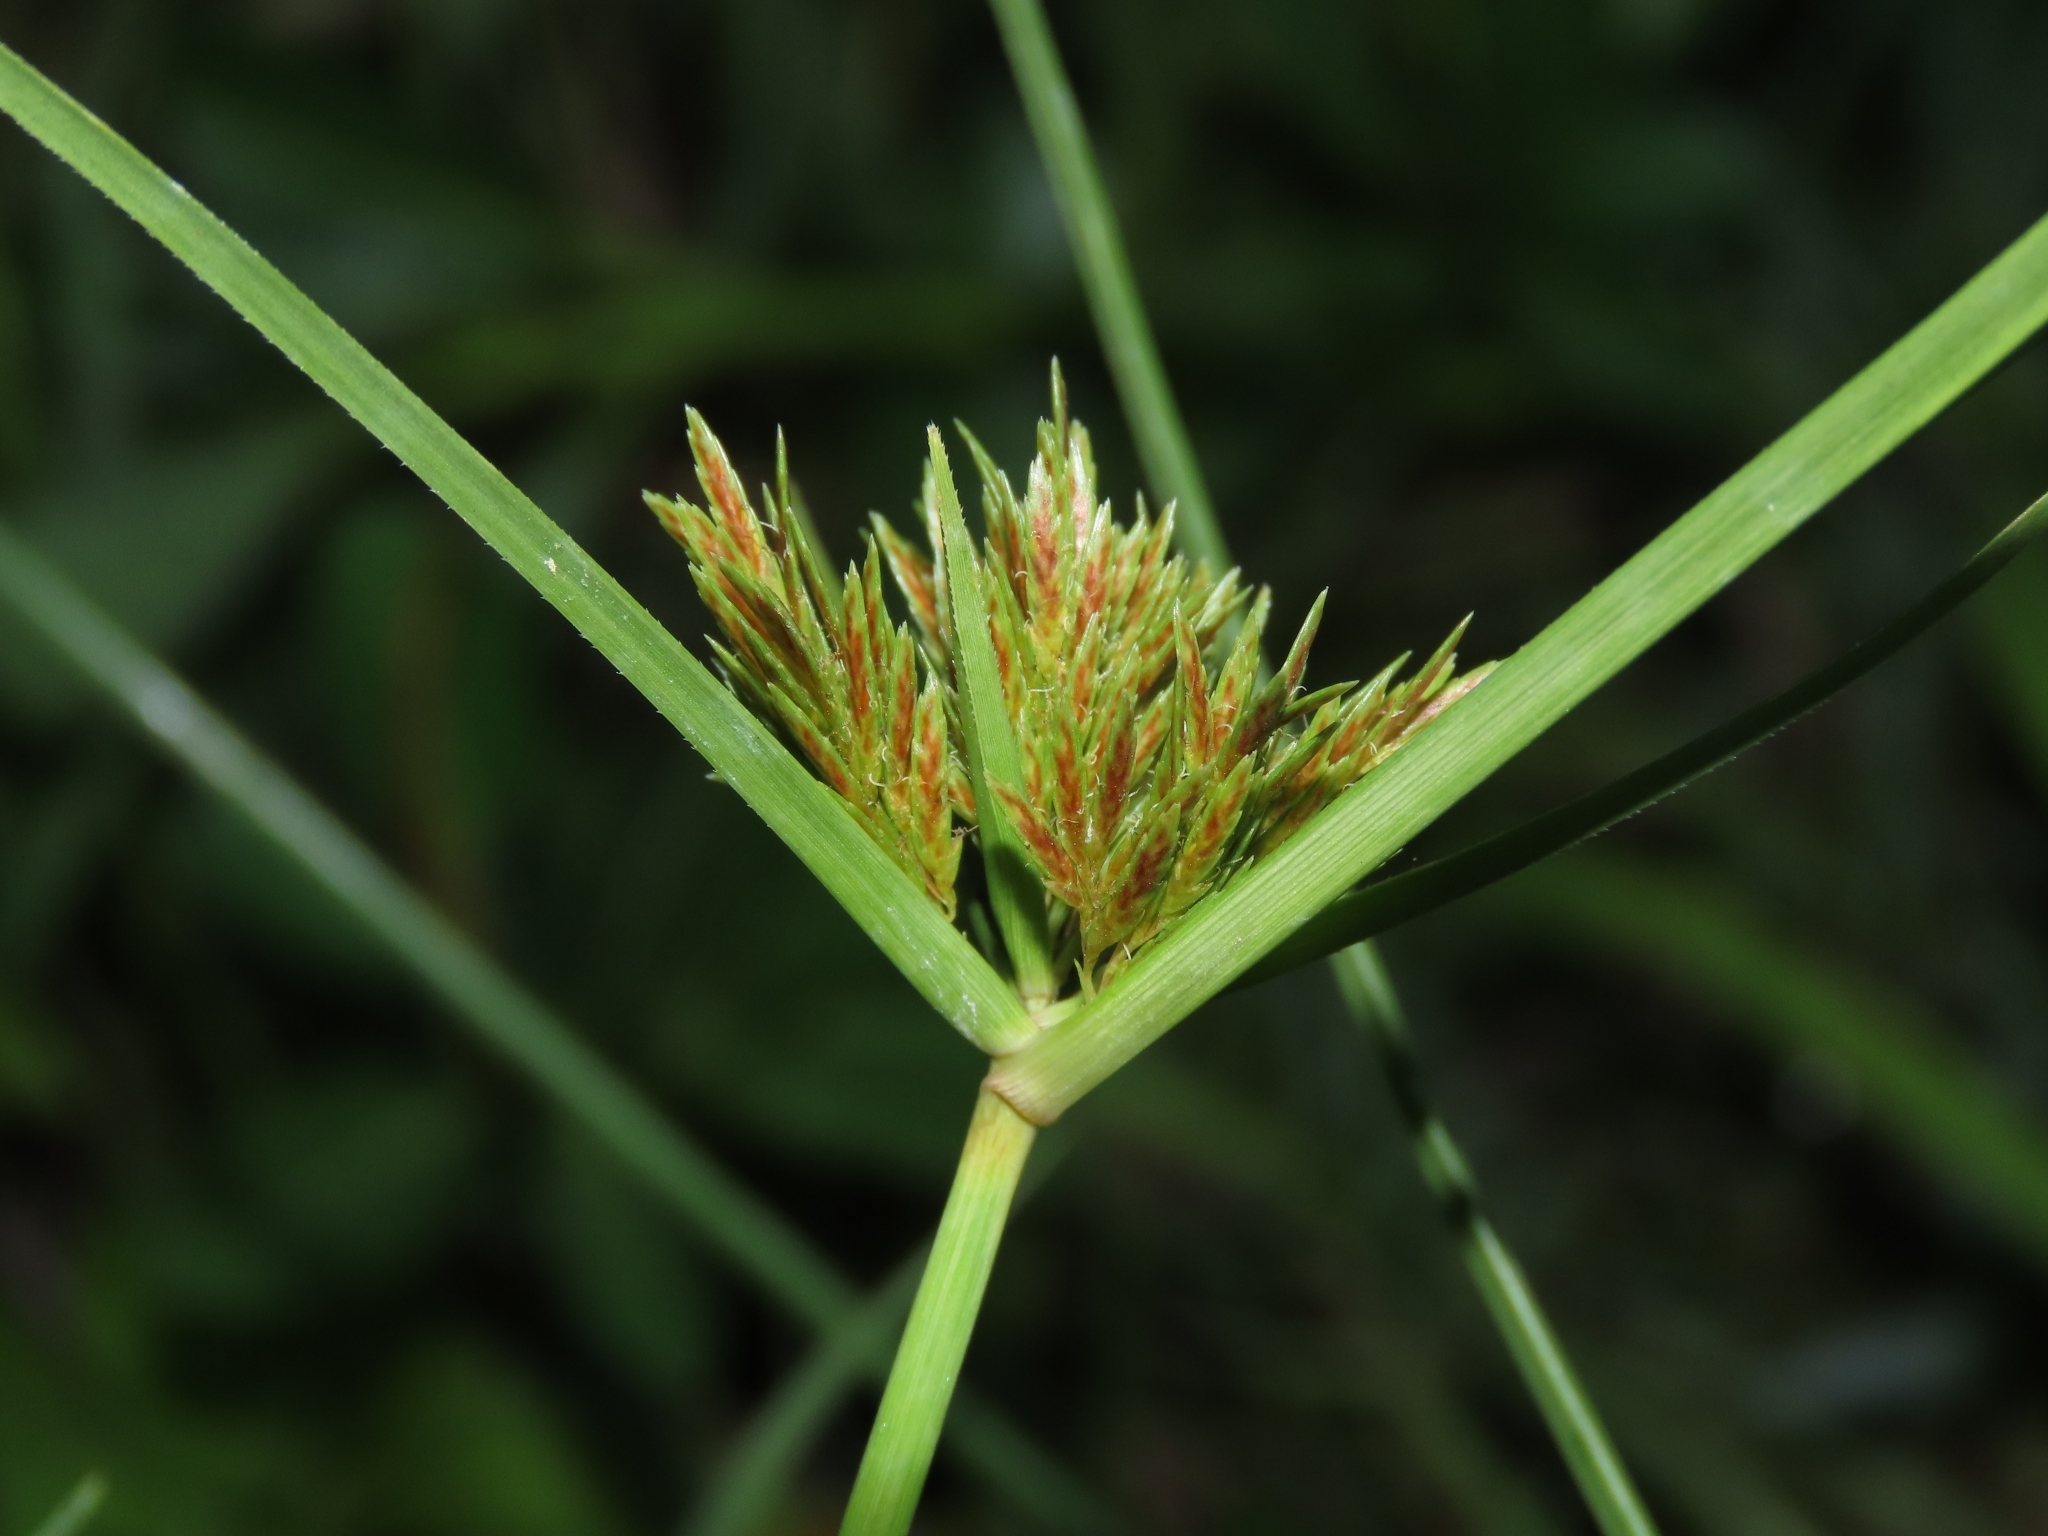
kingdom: Plantae
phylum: Tracheophyta
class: Liliopsida
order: Poales
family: Cyperaceae
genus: Cyperus
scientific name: Cyperus polystachyos
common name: Bunchy flat sedge
